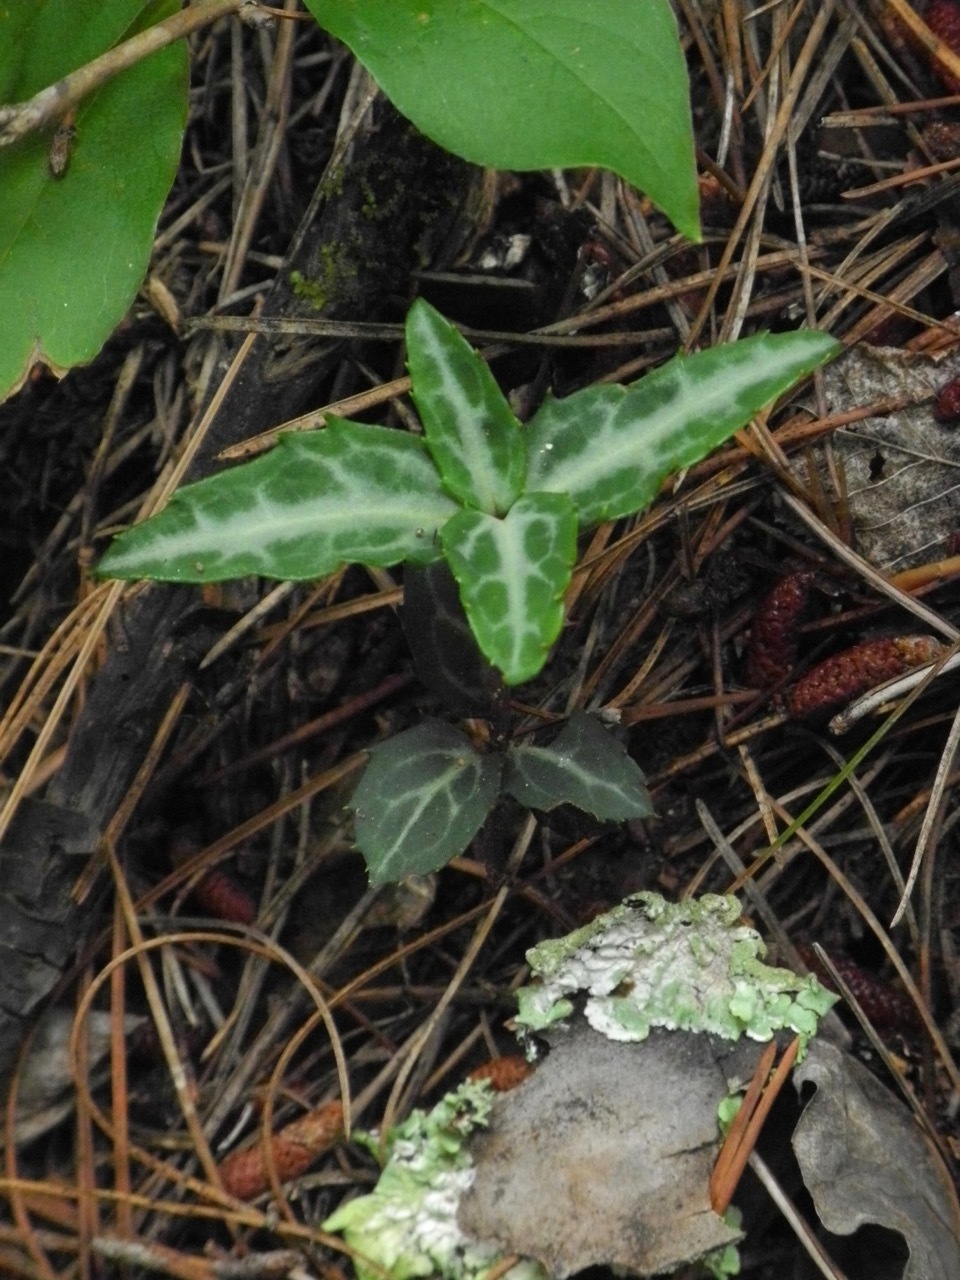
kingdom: Plantae
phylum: Tracheophyta
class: Magnoliopsida
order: Ericales
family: Ericaceae
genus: Chimaphila
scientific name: Chimaphila maculata
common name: Spotted pipsissewa
